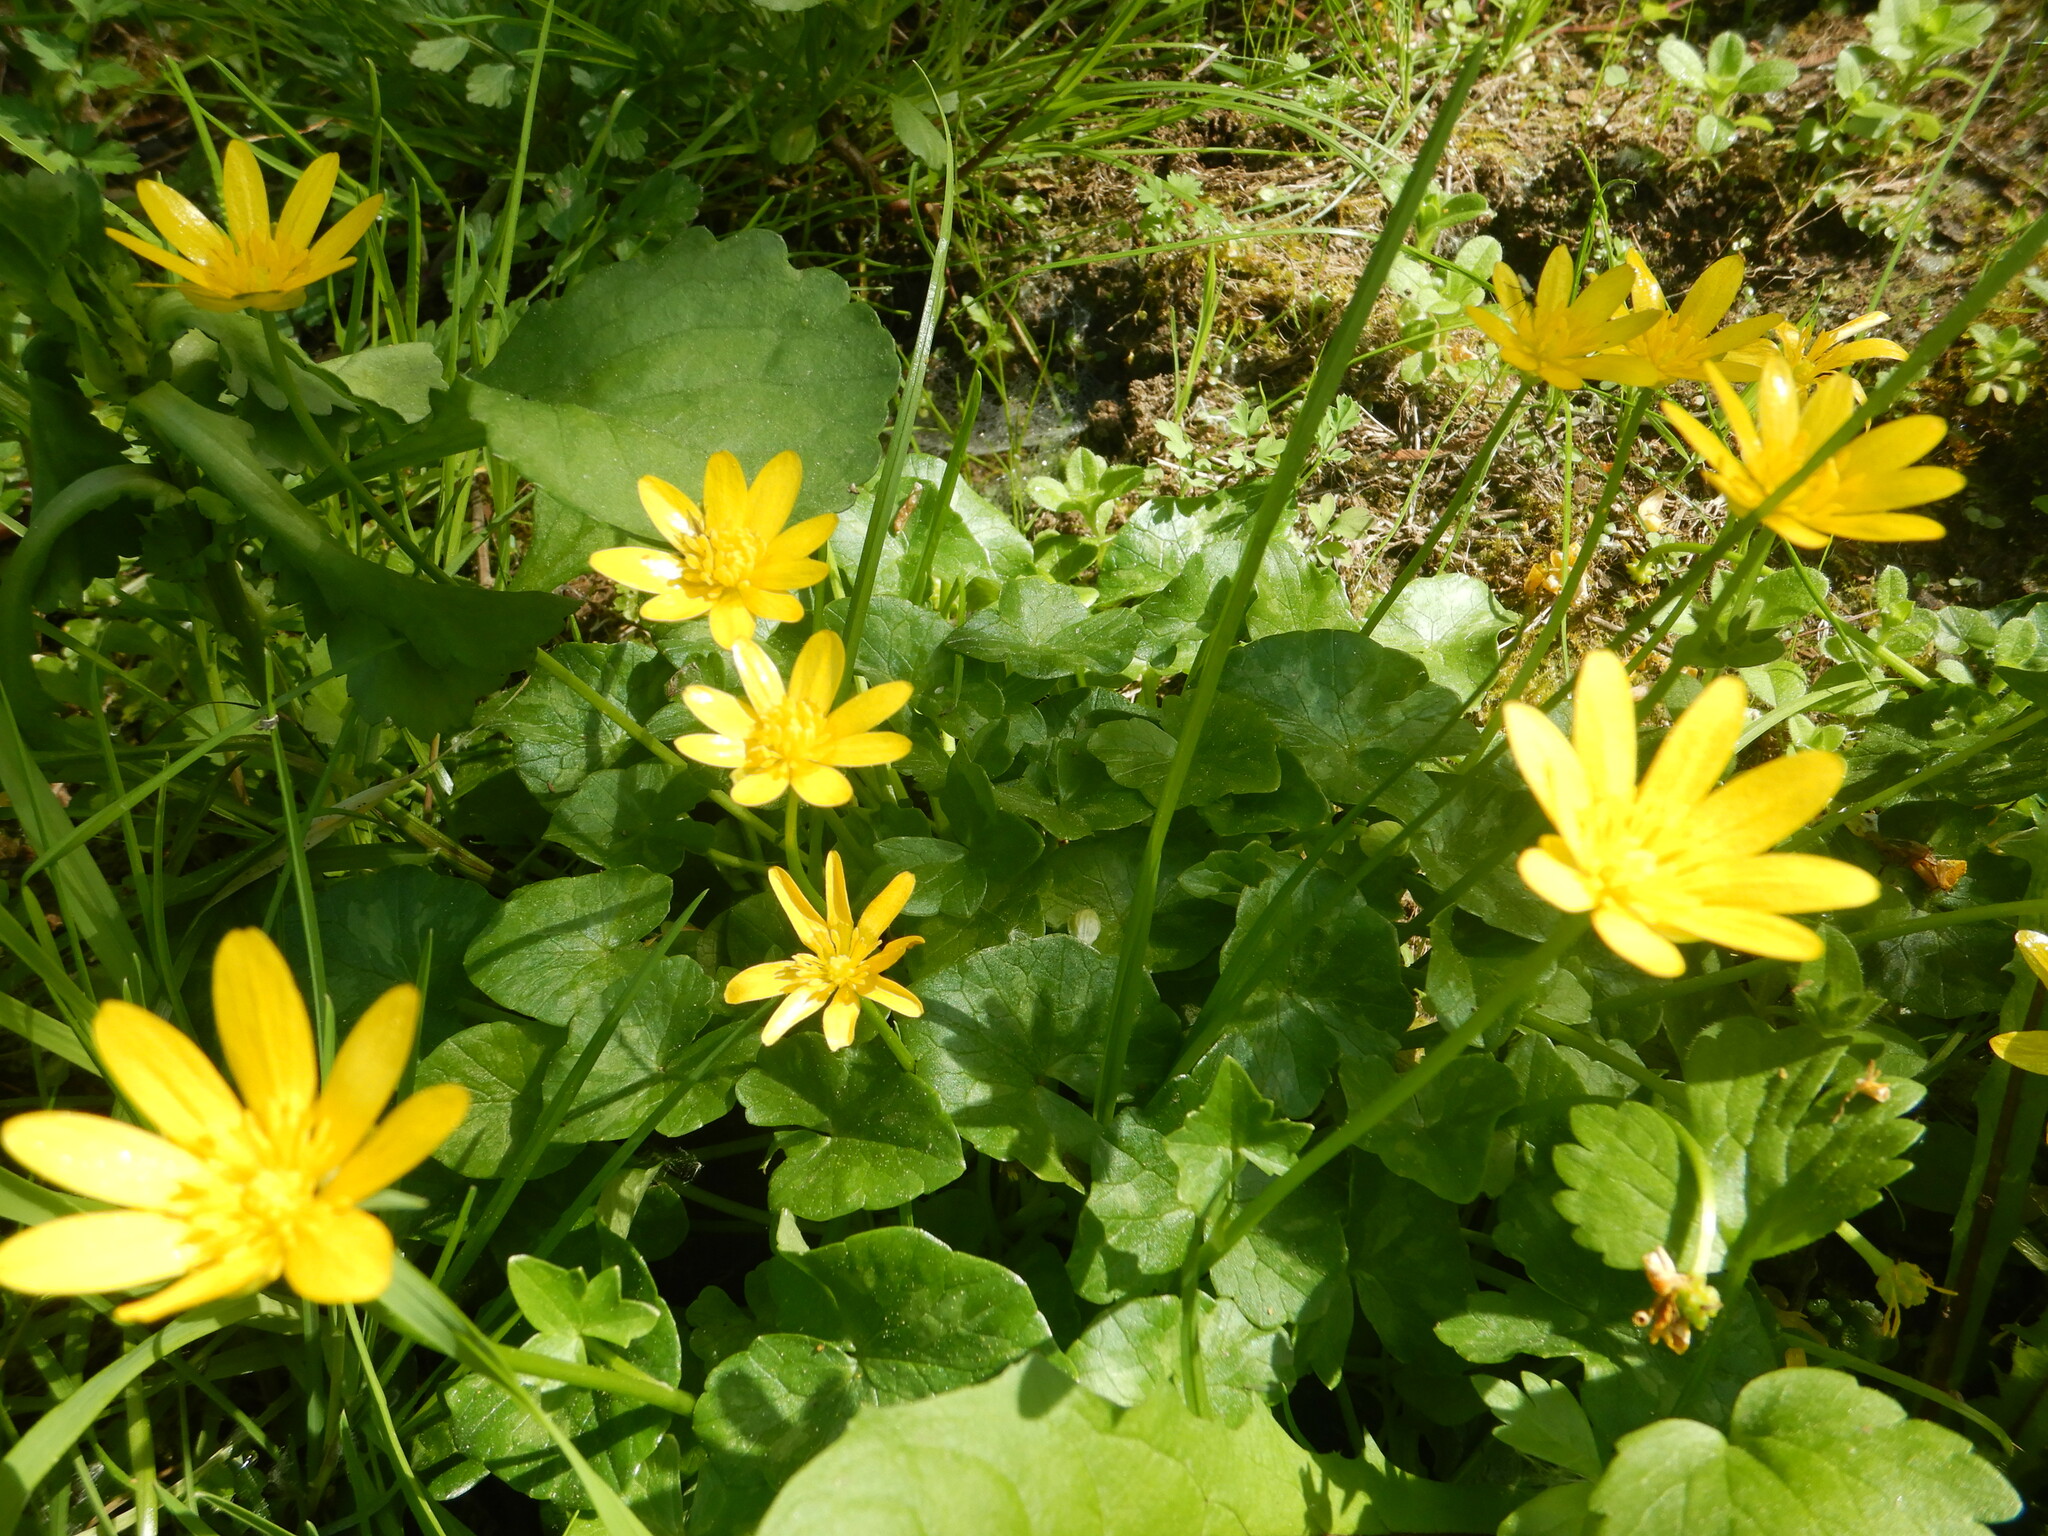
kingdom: Plantae
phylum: Tracheophyta
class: Magnoliopsida
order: Ranunculales
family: Ranunculaceae
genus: Ficaria
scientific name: Ficaria verna
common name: Lesser celandine
